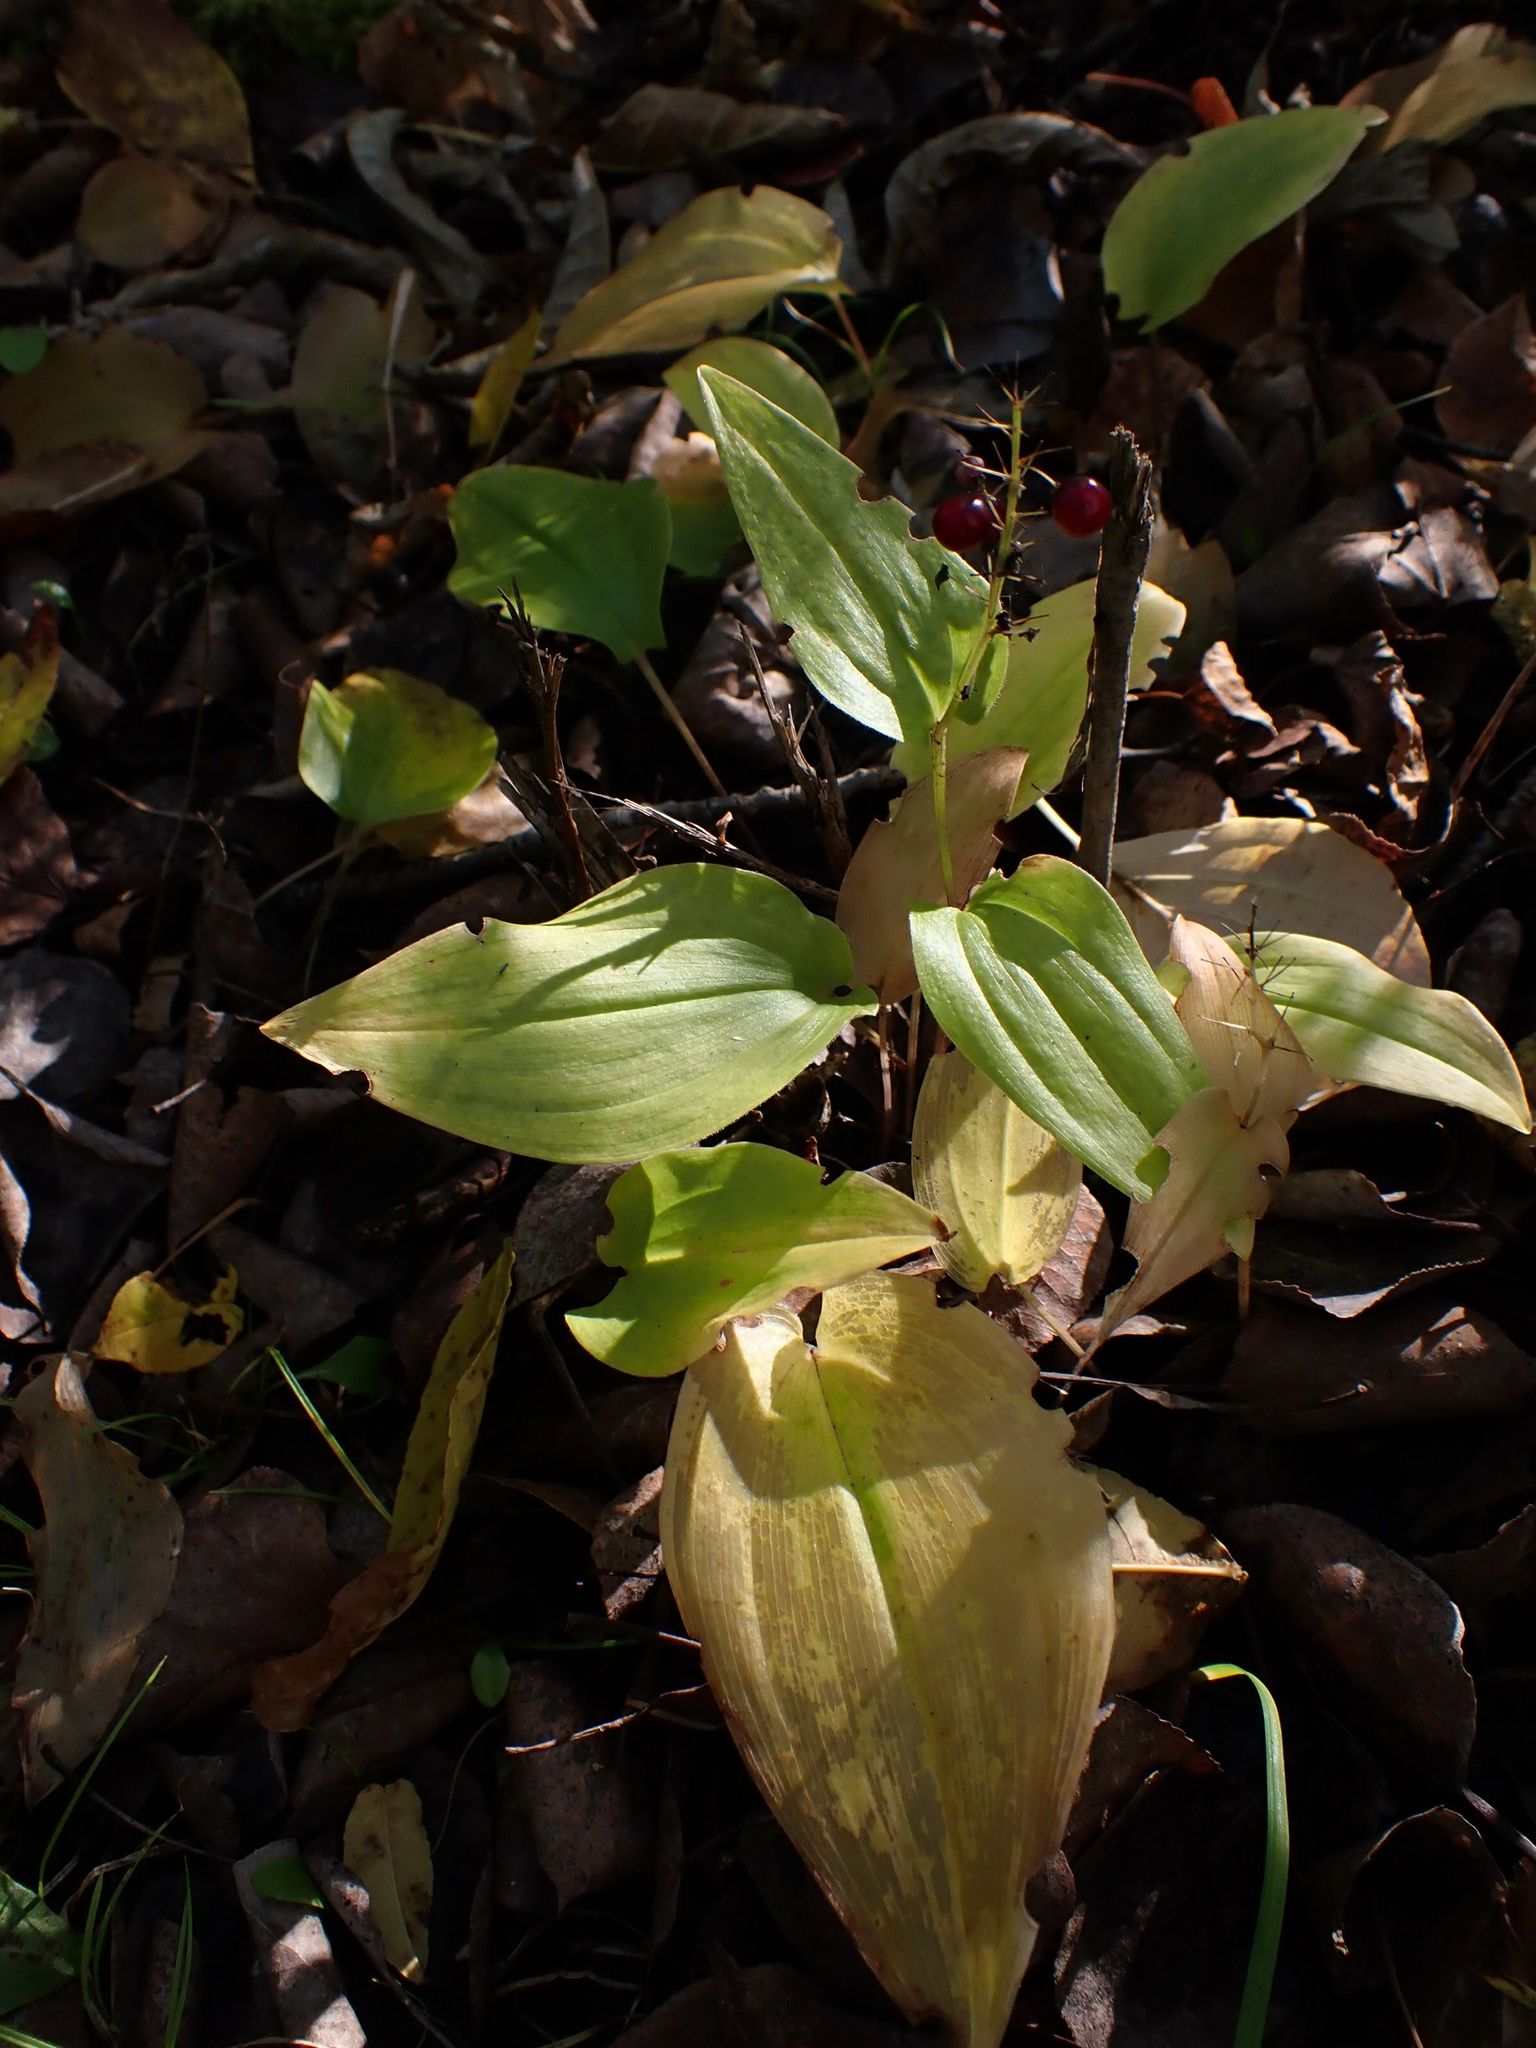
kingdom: Plantae
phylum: Tracheophyta
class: Liliopsida
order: Asparagales
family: Asparagaceae
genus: Maianthemum
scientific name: Maianthemum canadense
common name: False lily-of-the-valley
